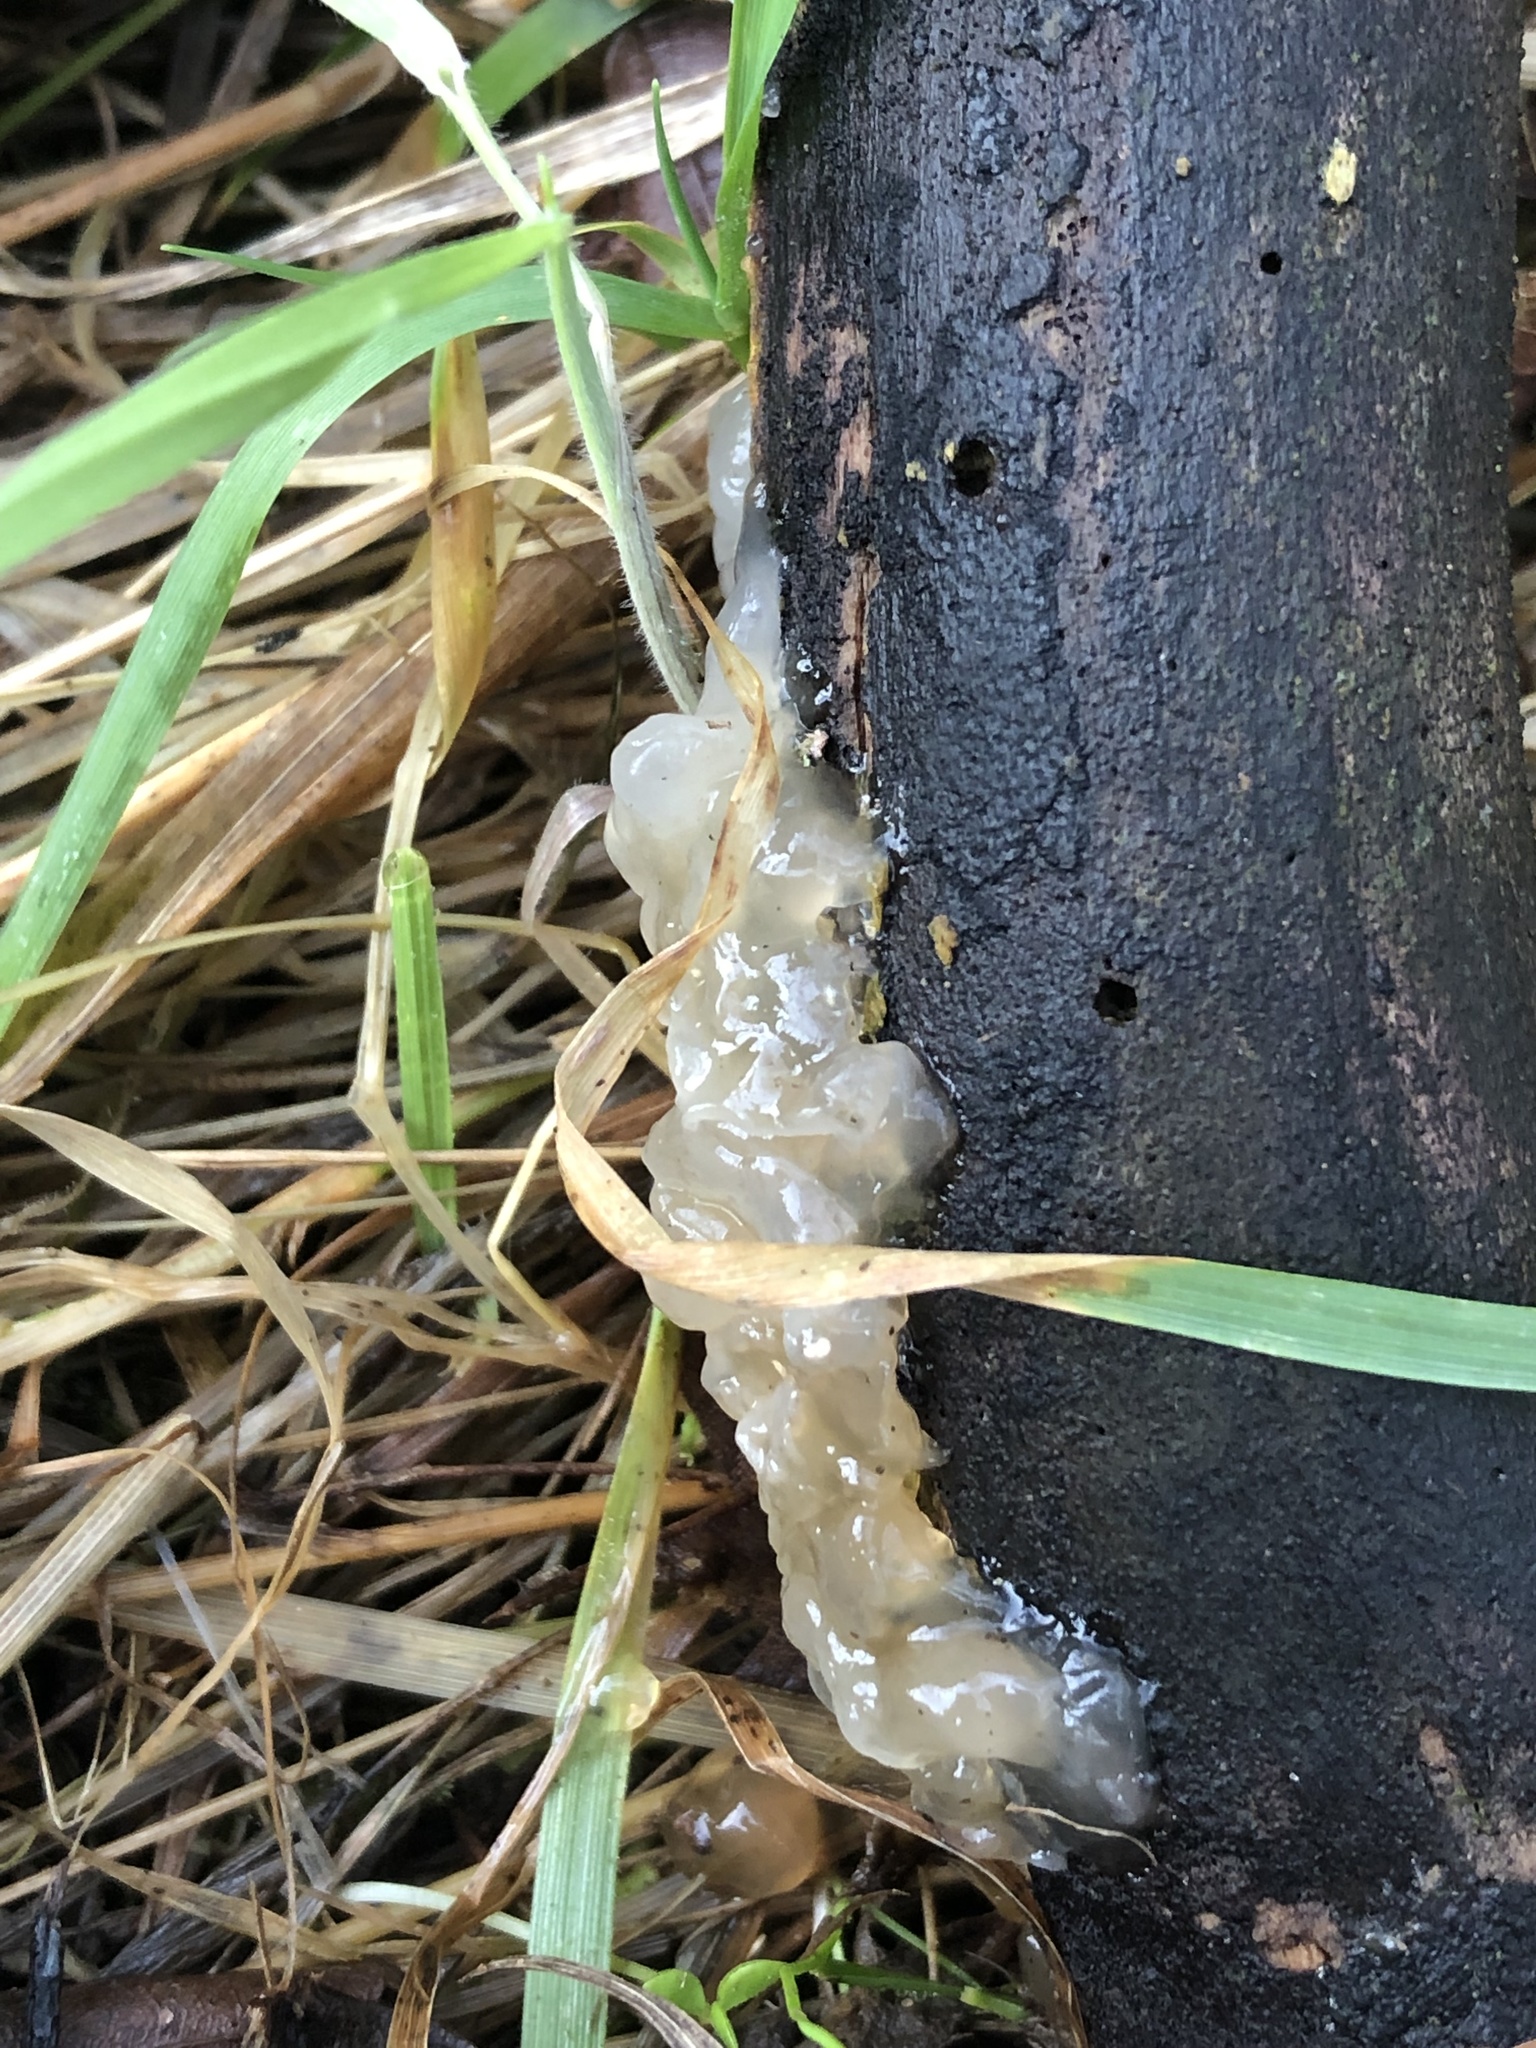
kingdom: Fungi
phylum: Basidiomycota
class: Agaricomycetes
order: Auriculariales
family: Hyaloriaceae
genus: Myxarium
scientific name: Myxarium nucleatum
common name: Crystal brain fungus
